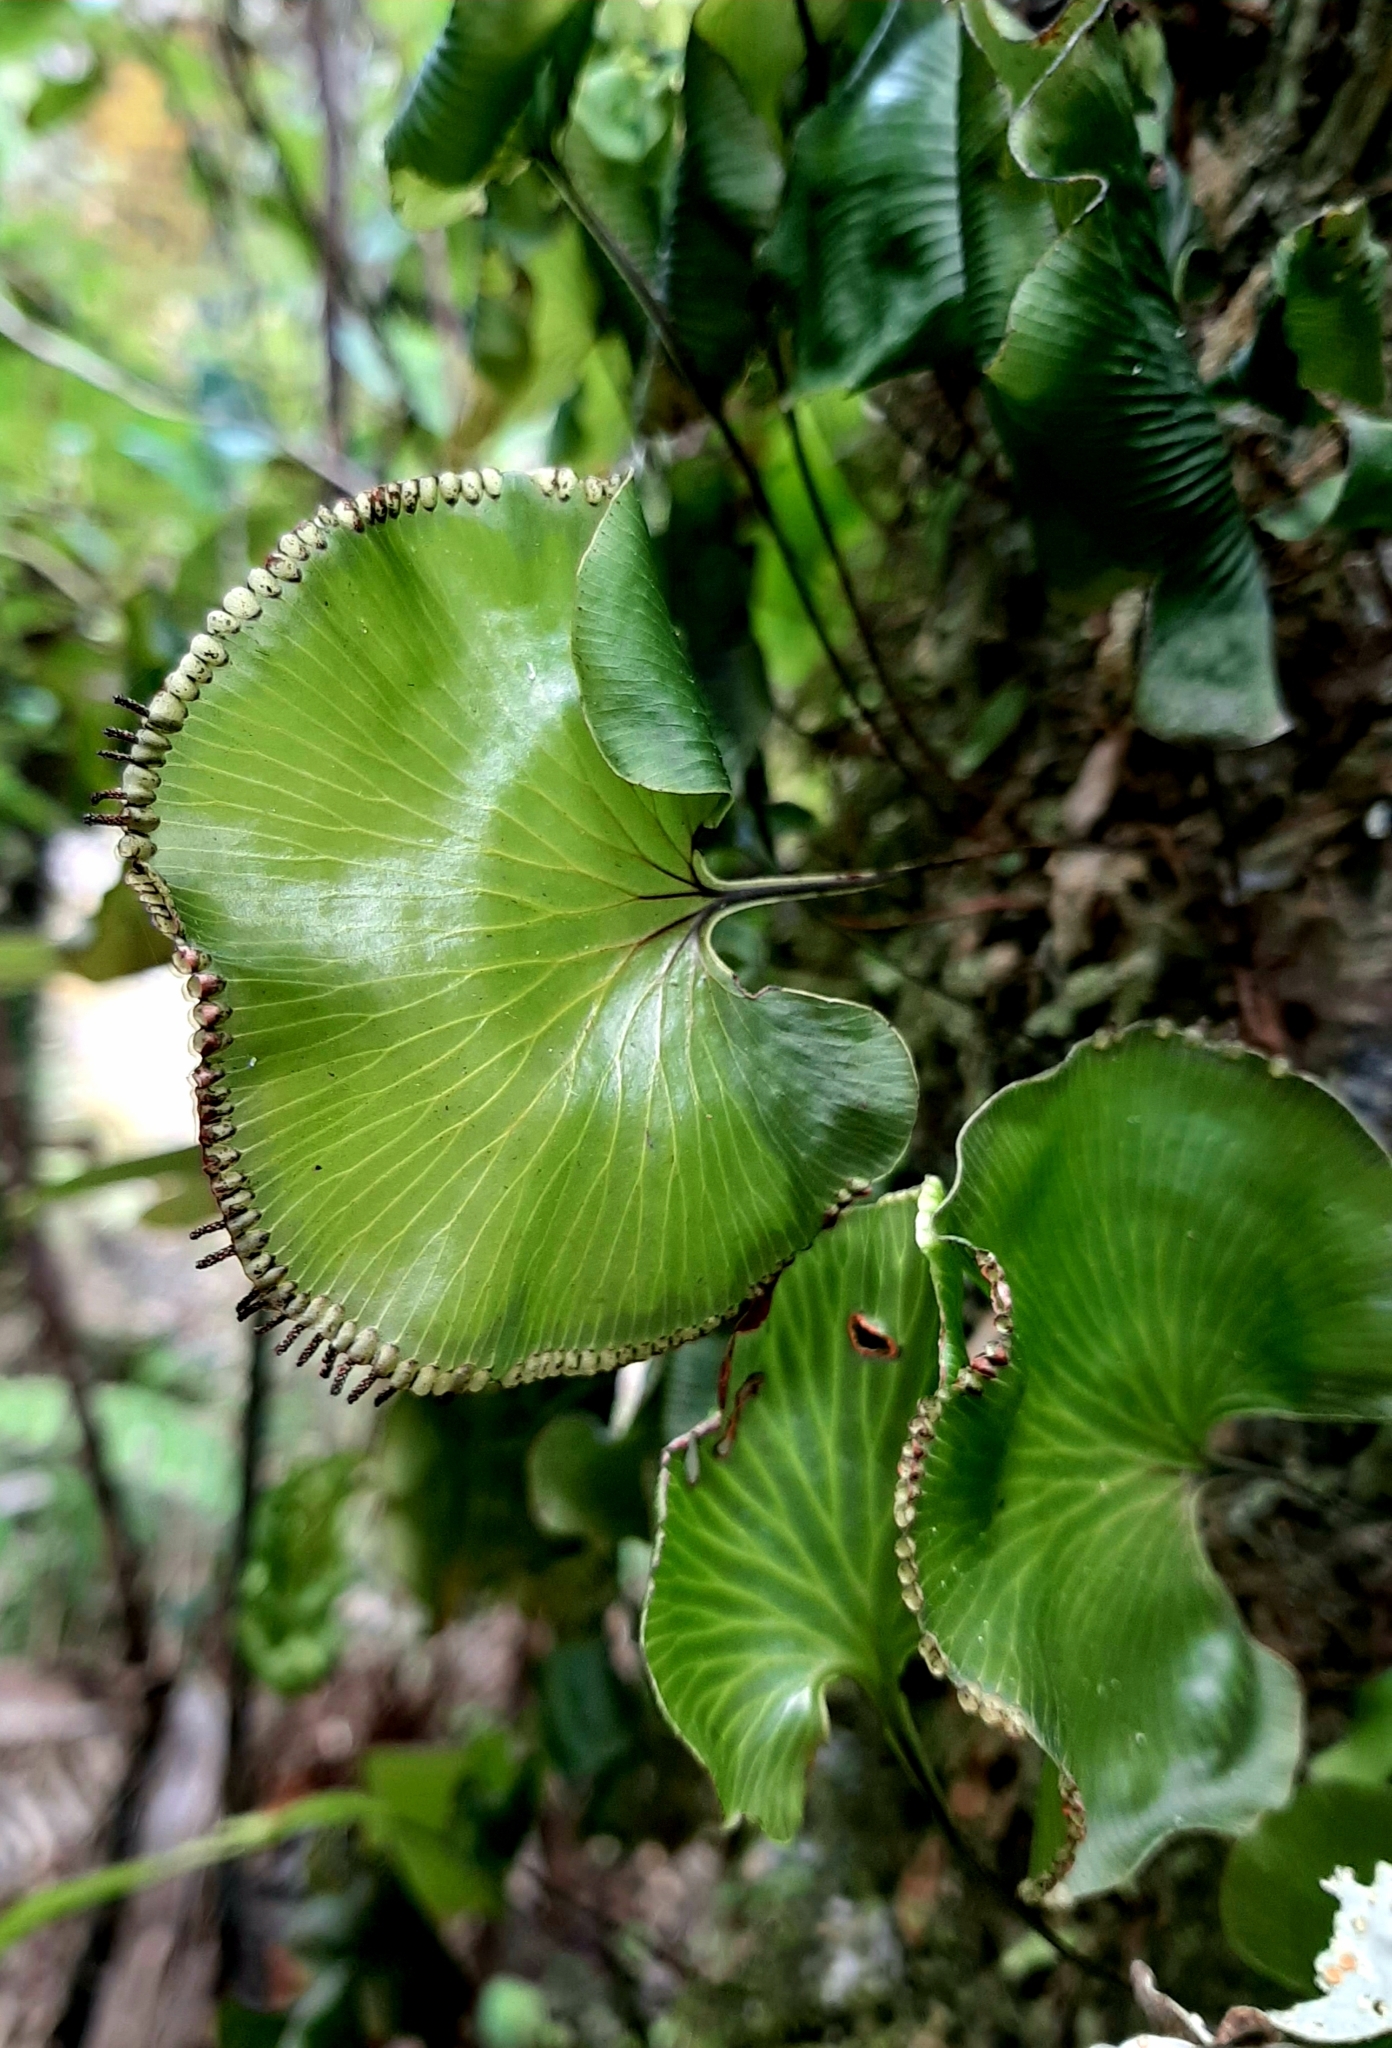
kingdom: Plantae
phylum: Tracheophyta
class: Polypodiopsida
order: Hymenophyllales
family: Hymenophyllaceae
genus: Hymenophyllum
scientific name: Hymenophyllum nephrophyllum
